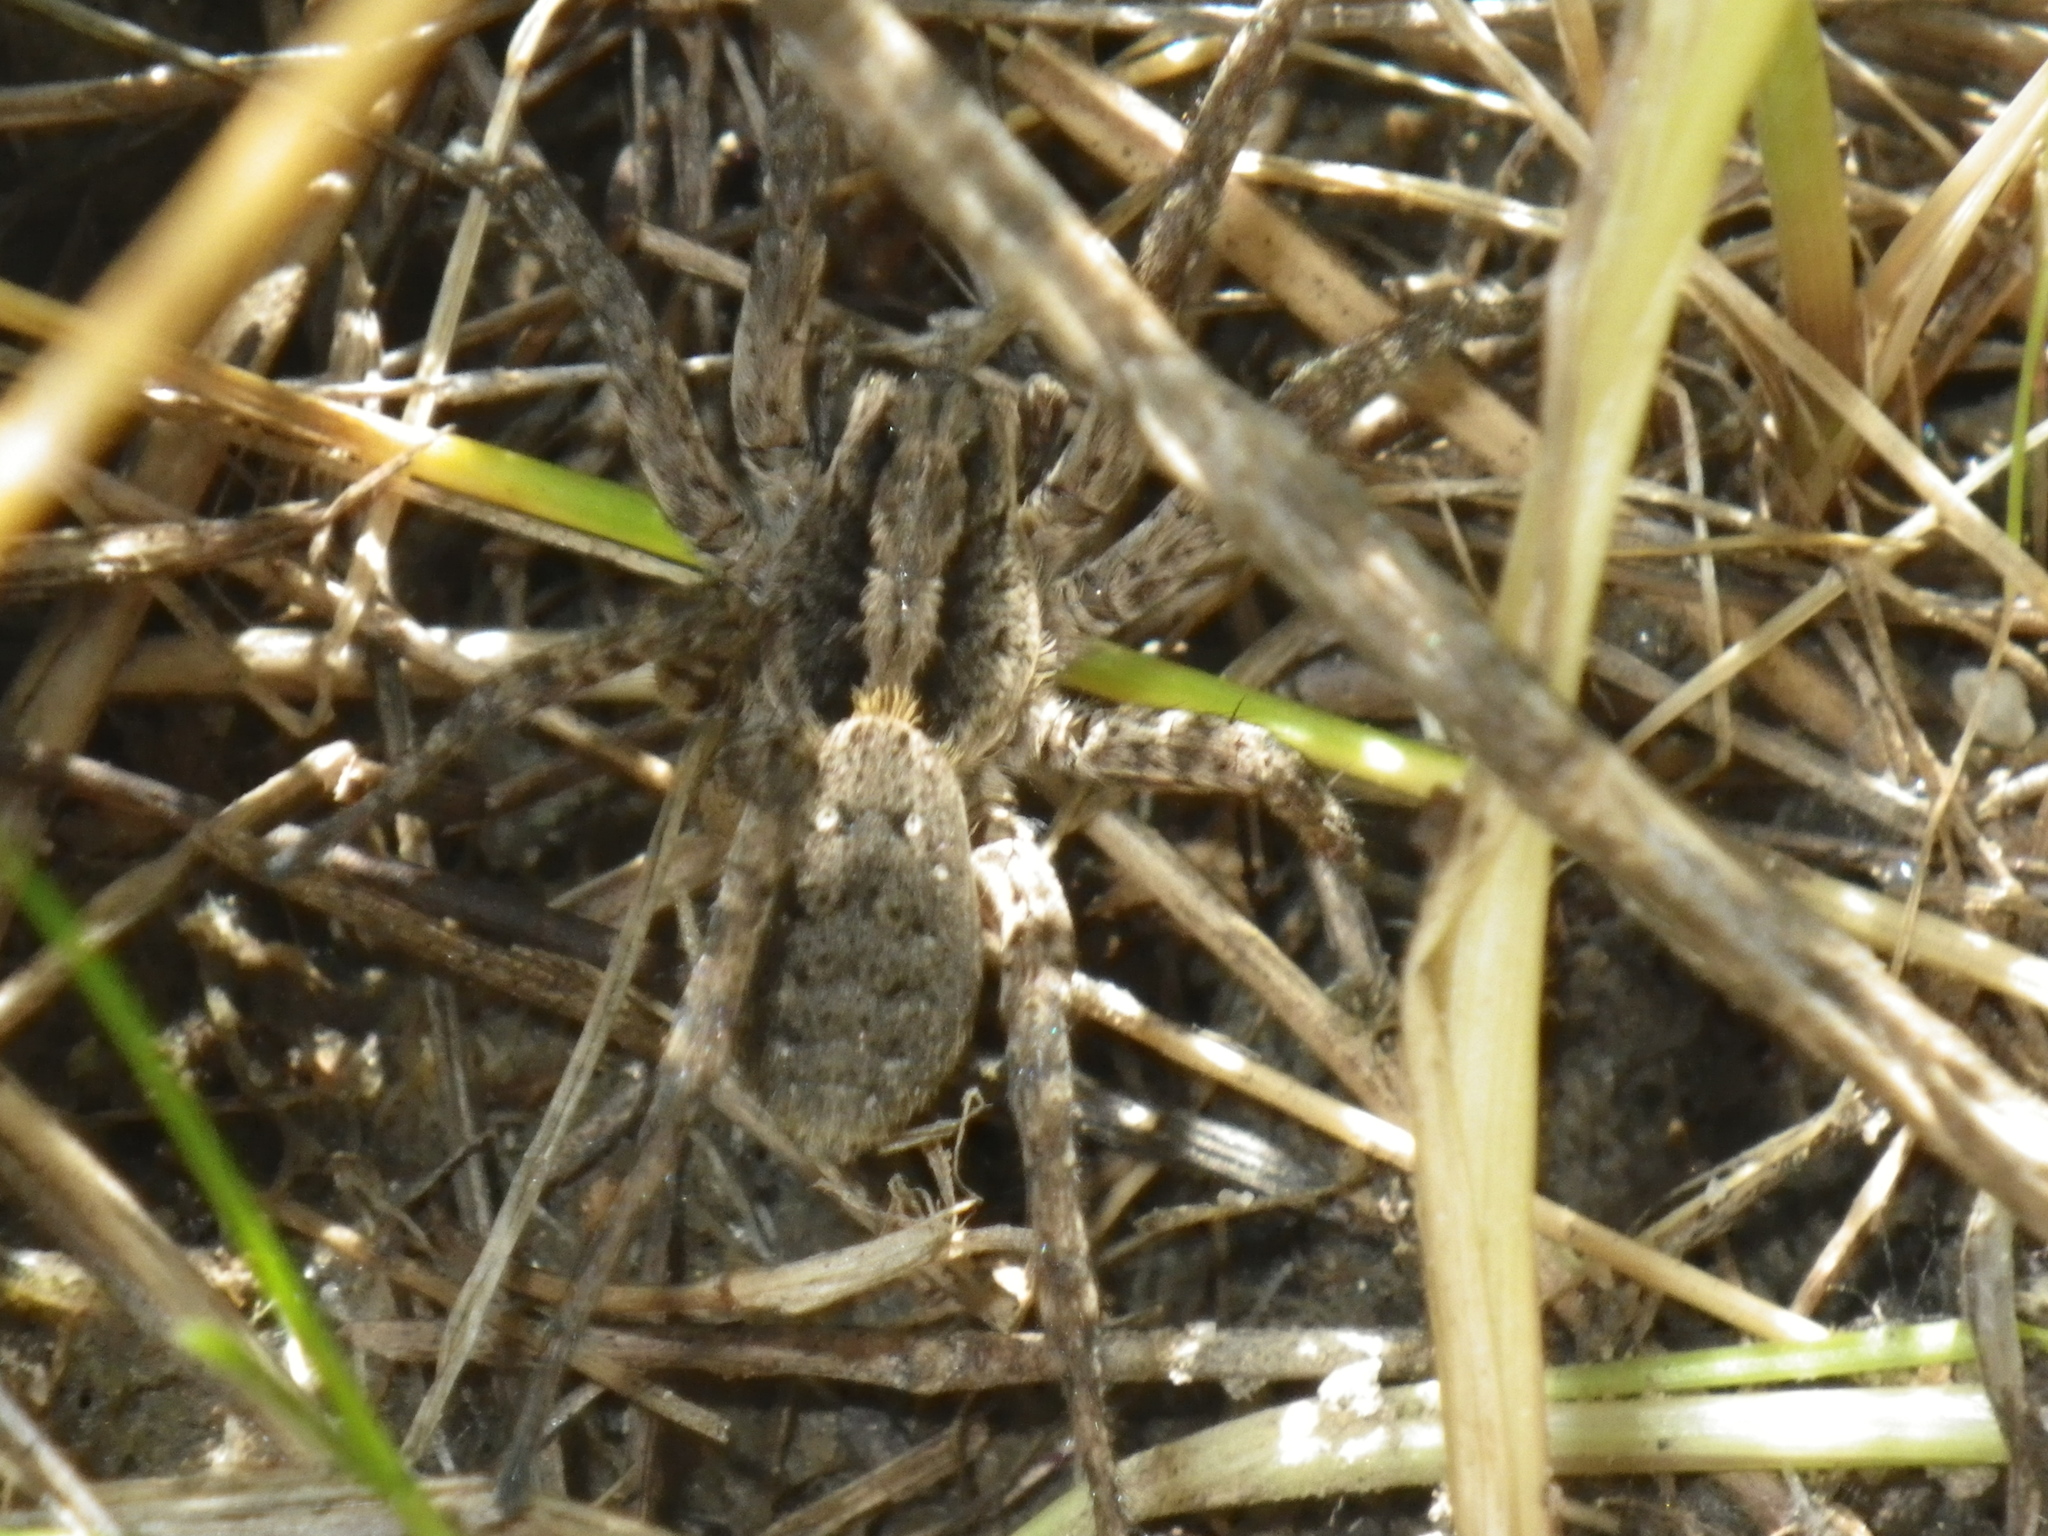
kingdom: Animalia
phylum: Arthropoda
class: Arachnida
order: Araneae
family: Lycosidae
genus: Alopecosa
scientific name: Alopecosa kochi
